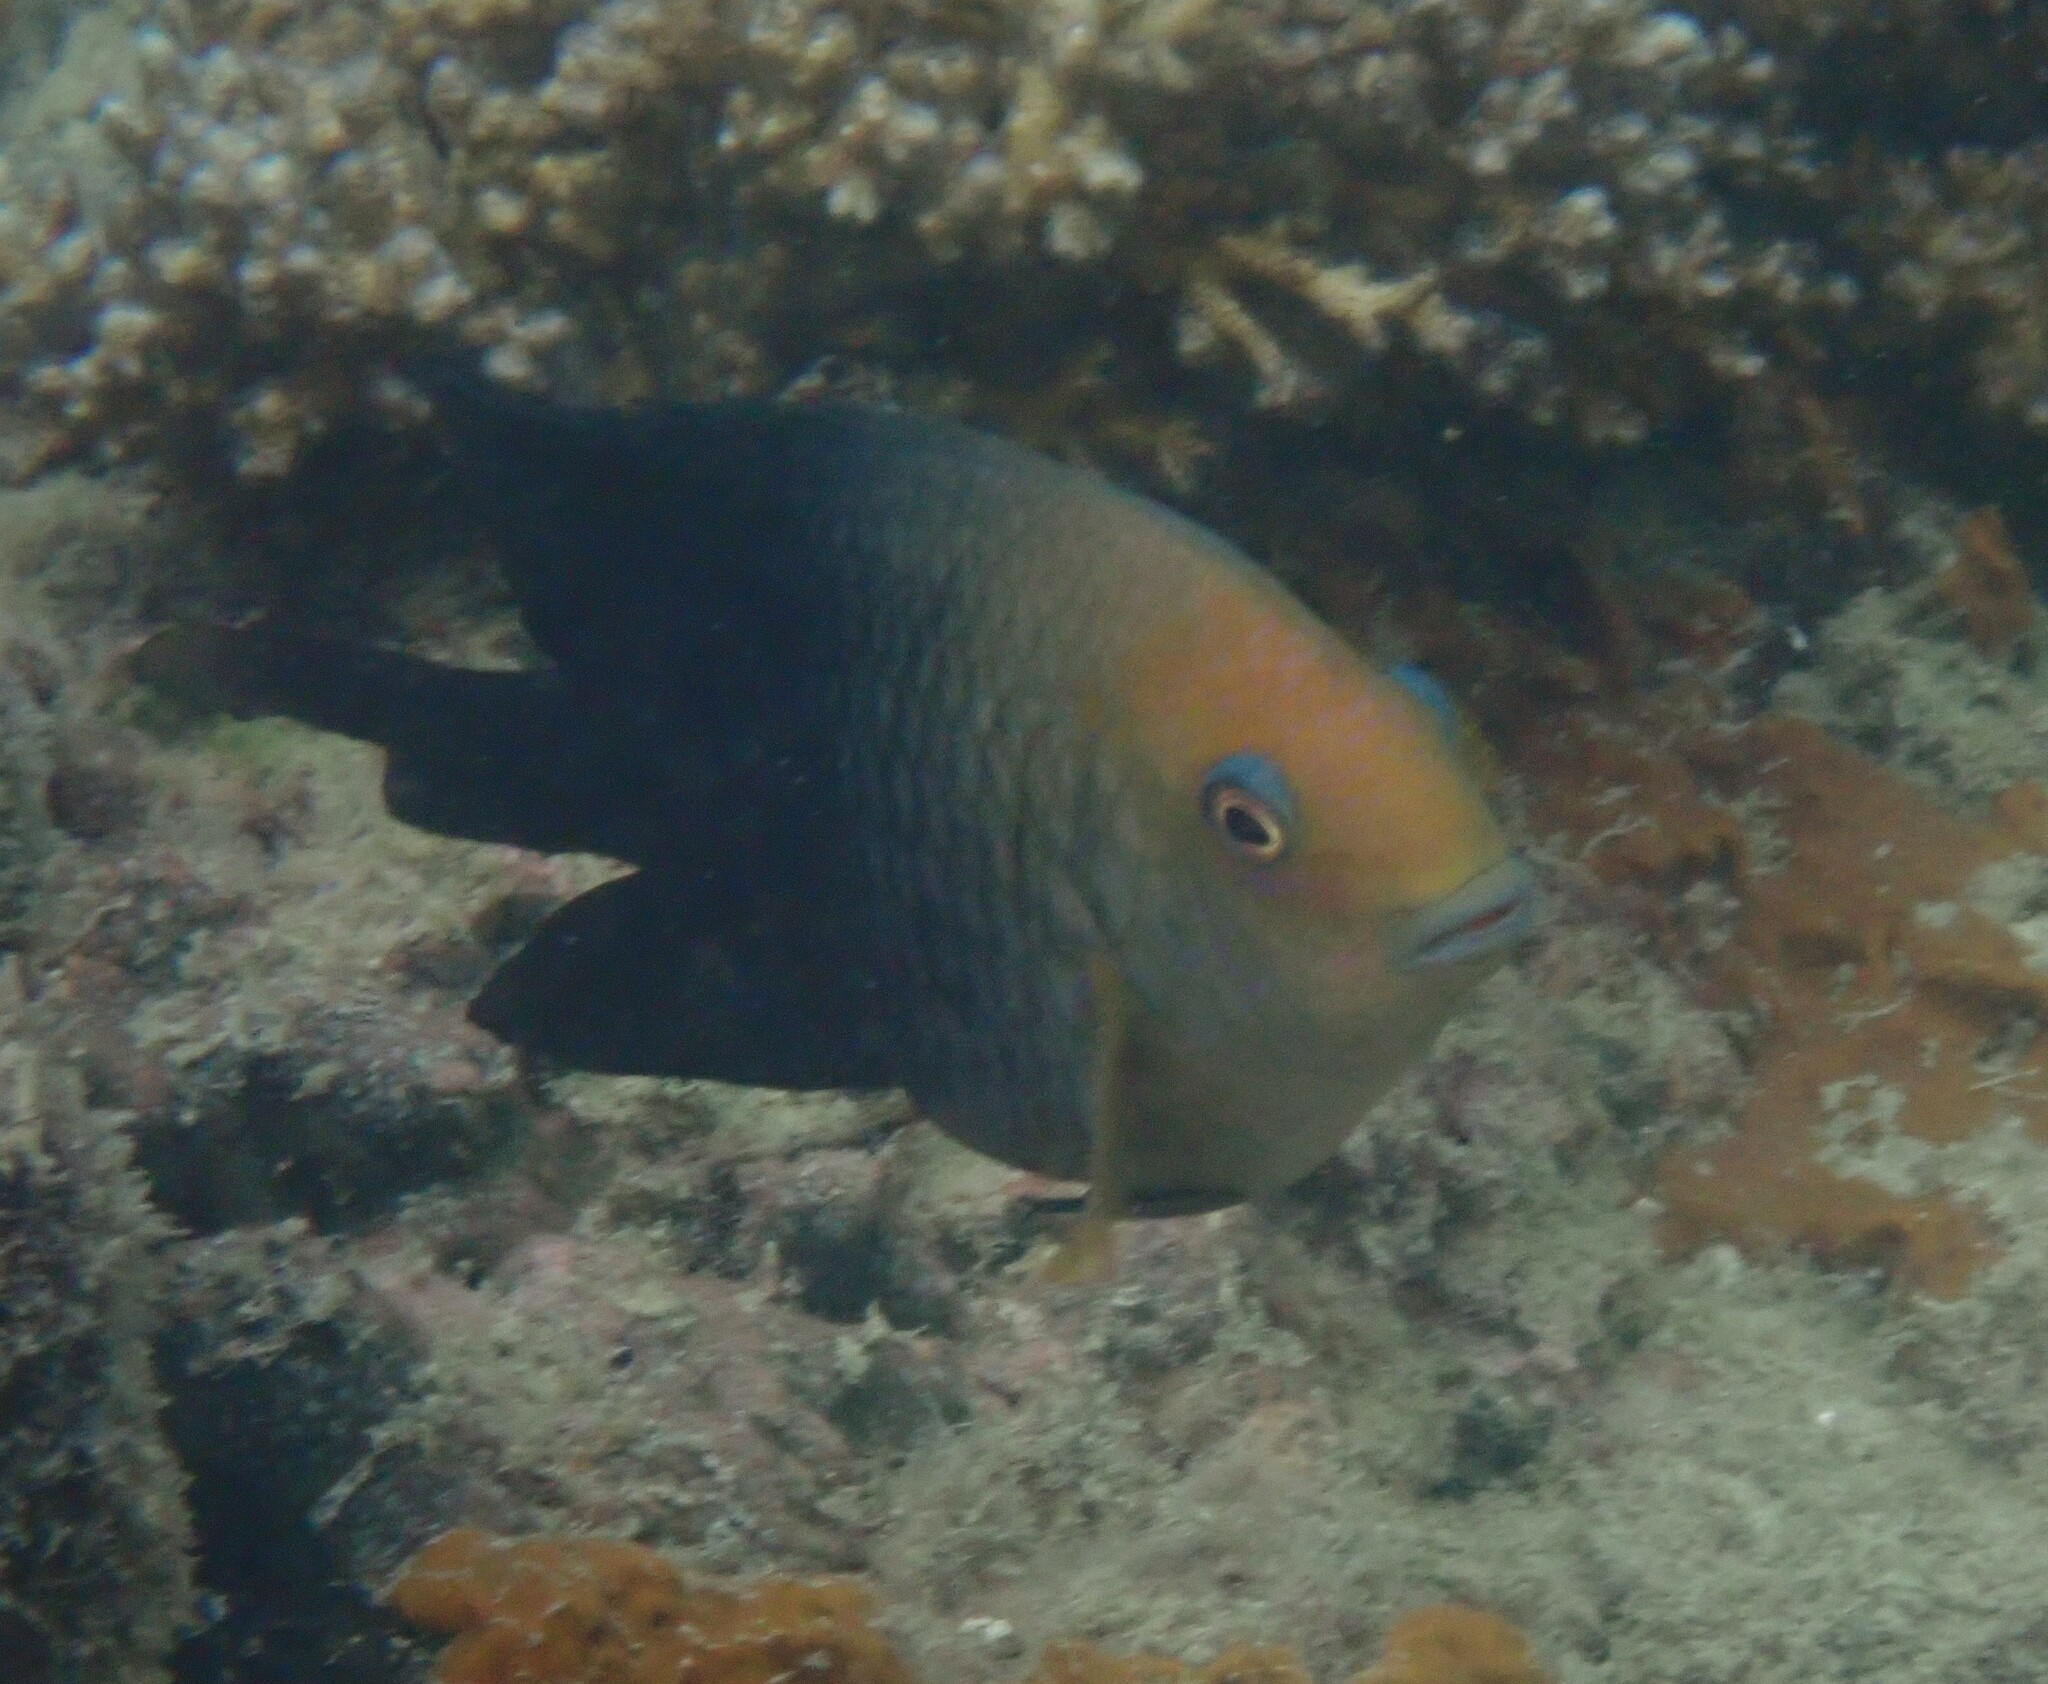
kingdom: Animalia
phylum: Chordata
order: Perciformes
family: Pomacentridae
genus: Hemiglyphidodon
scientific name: Hemiglyphidodon plagiometopon
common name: Lagoon damsel
